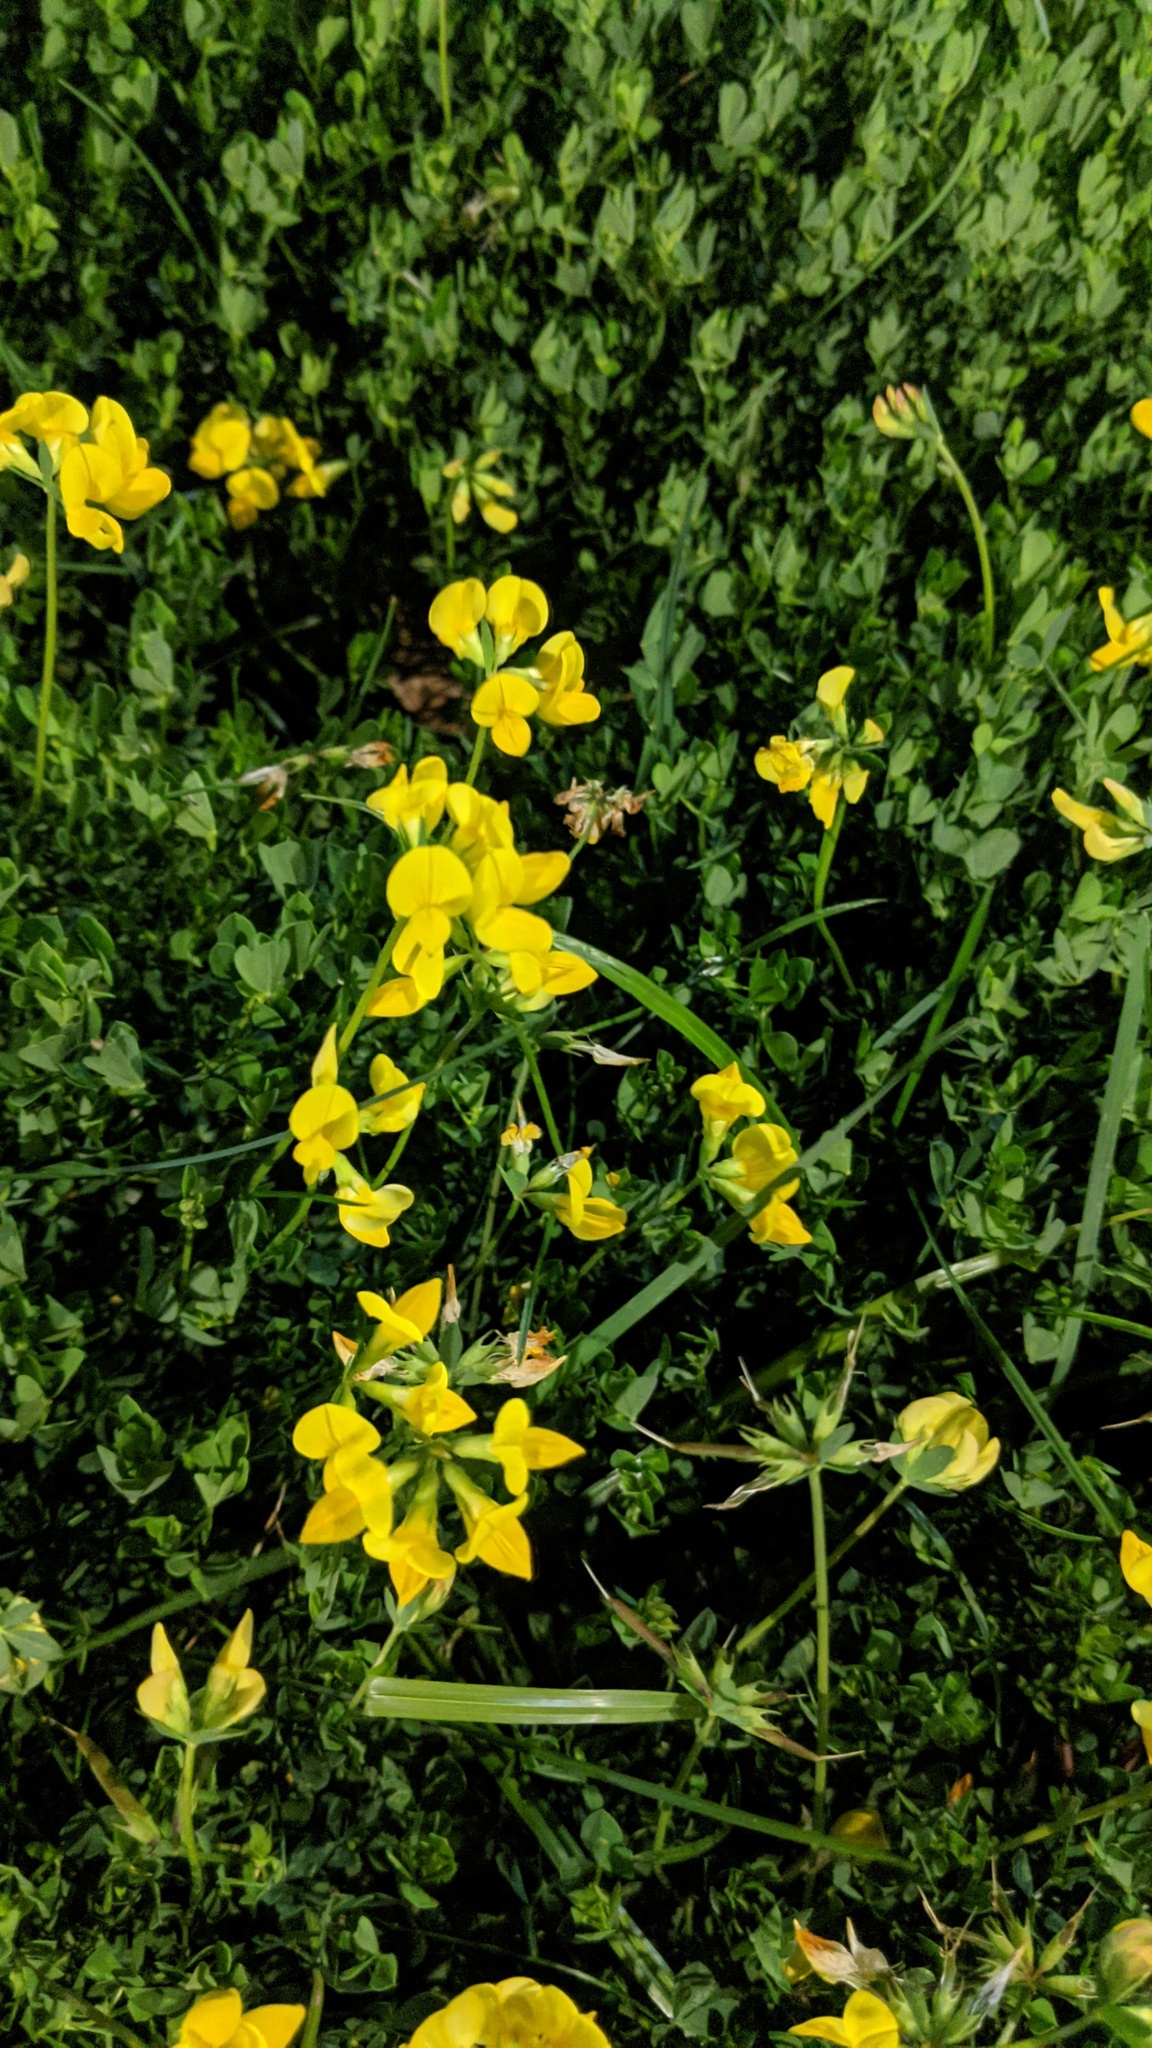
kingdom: Plantae
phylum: Tracheophyta
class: Magnoliopsida
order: Fabales
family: Fabaceae
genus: Lotus
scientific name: Lotus corniculatus
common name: Common bird's-foot-trefoil
